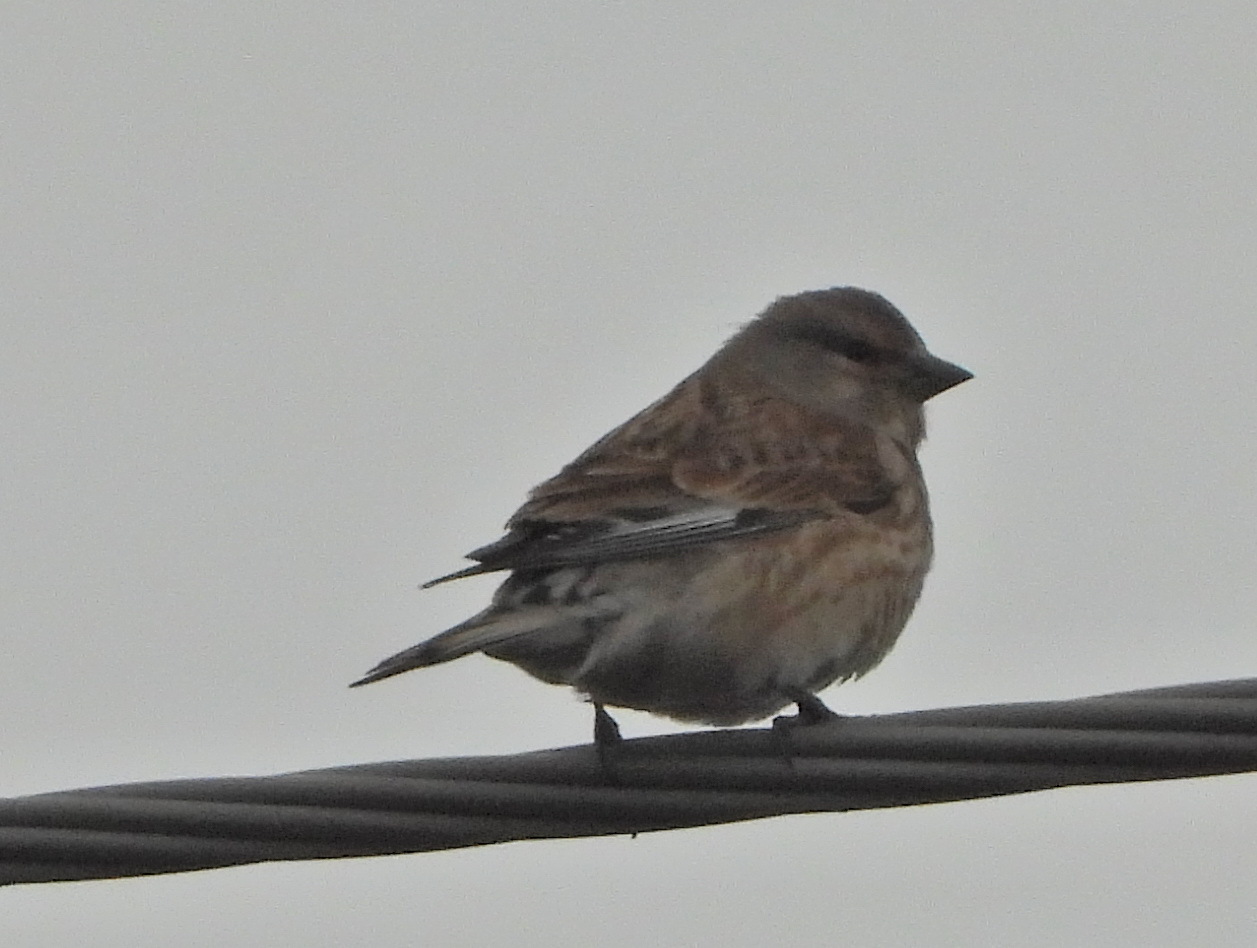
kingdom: Animalia
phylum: Chordata
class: Aves
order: Passeriformes
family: Fringillidae
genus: Linaria
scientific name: Linaria cannabina
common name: Common linnet
